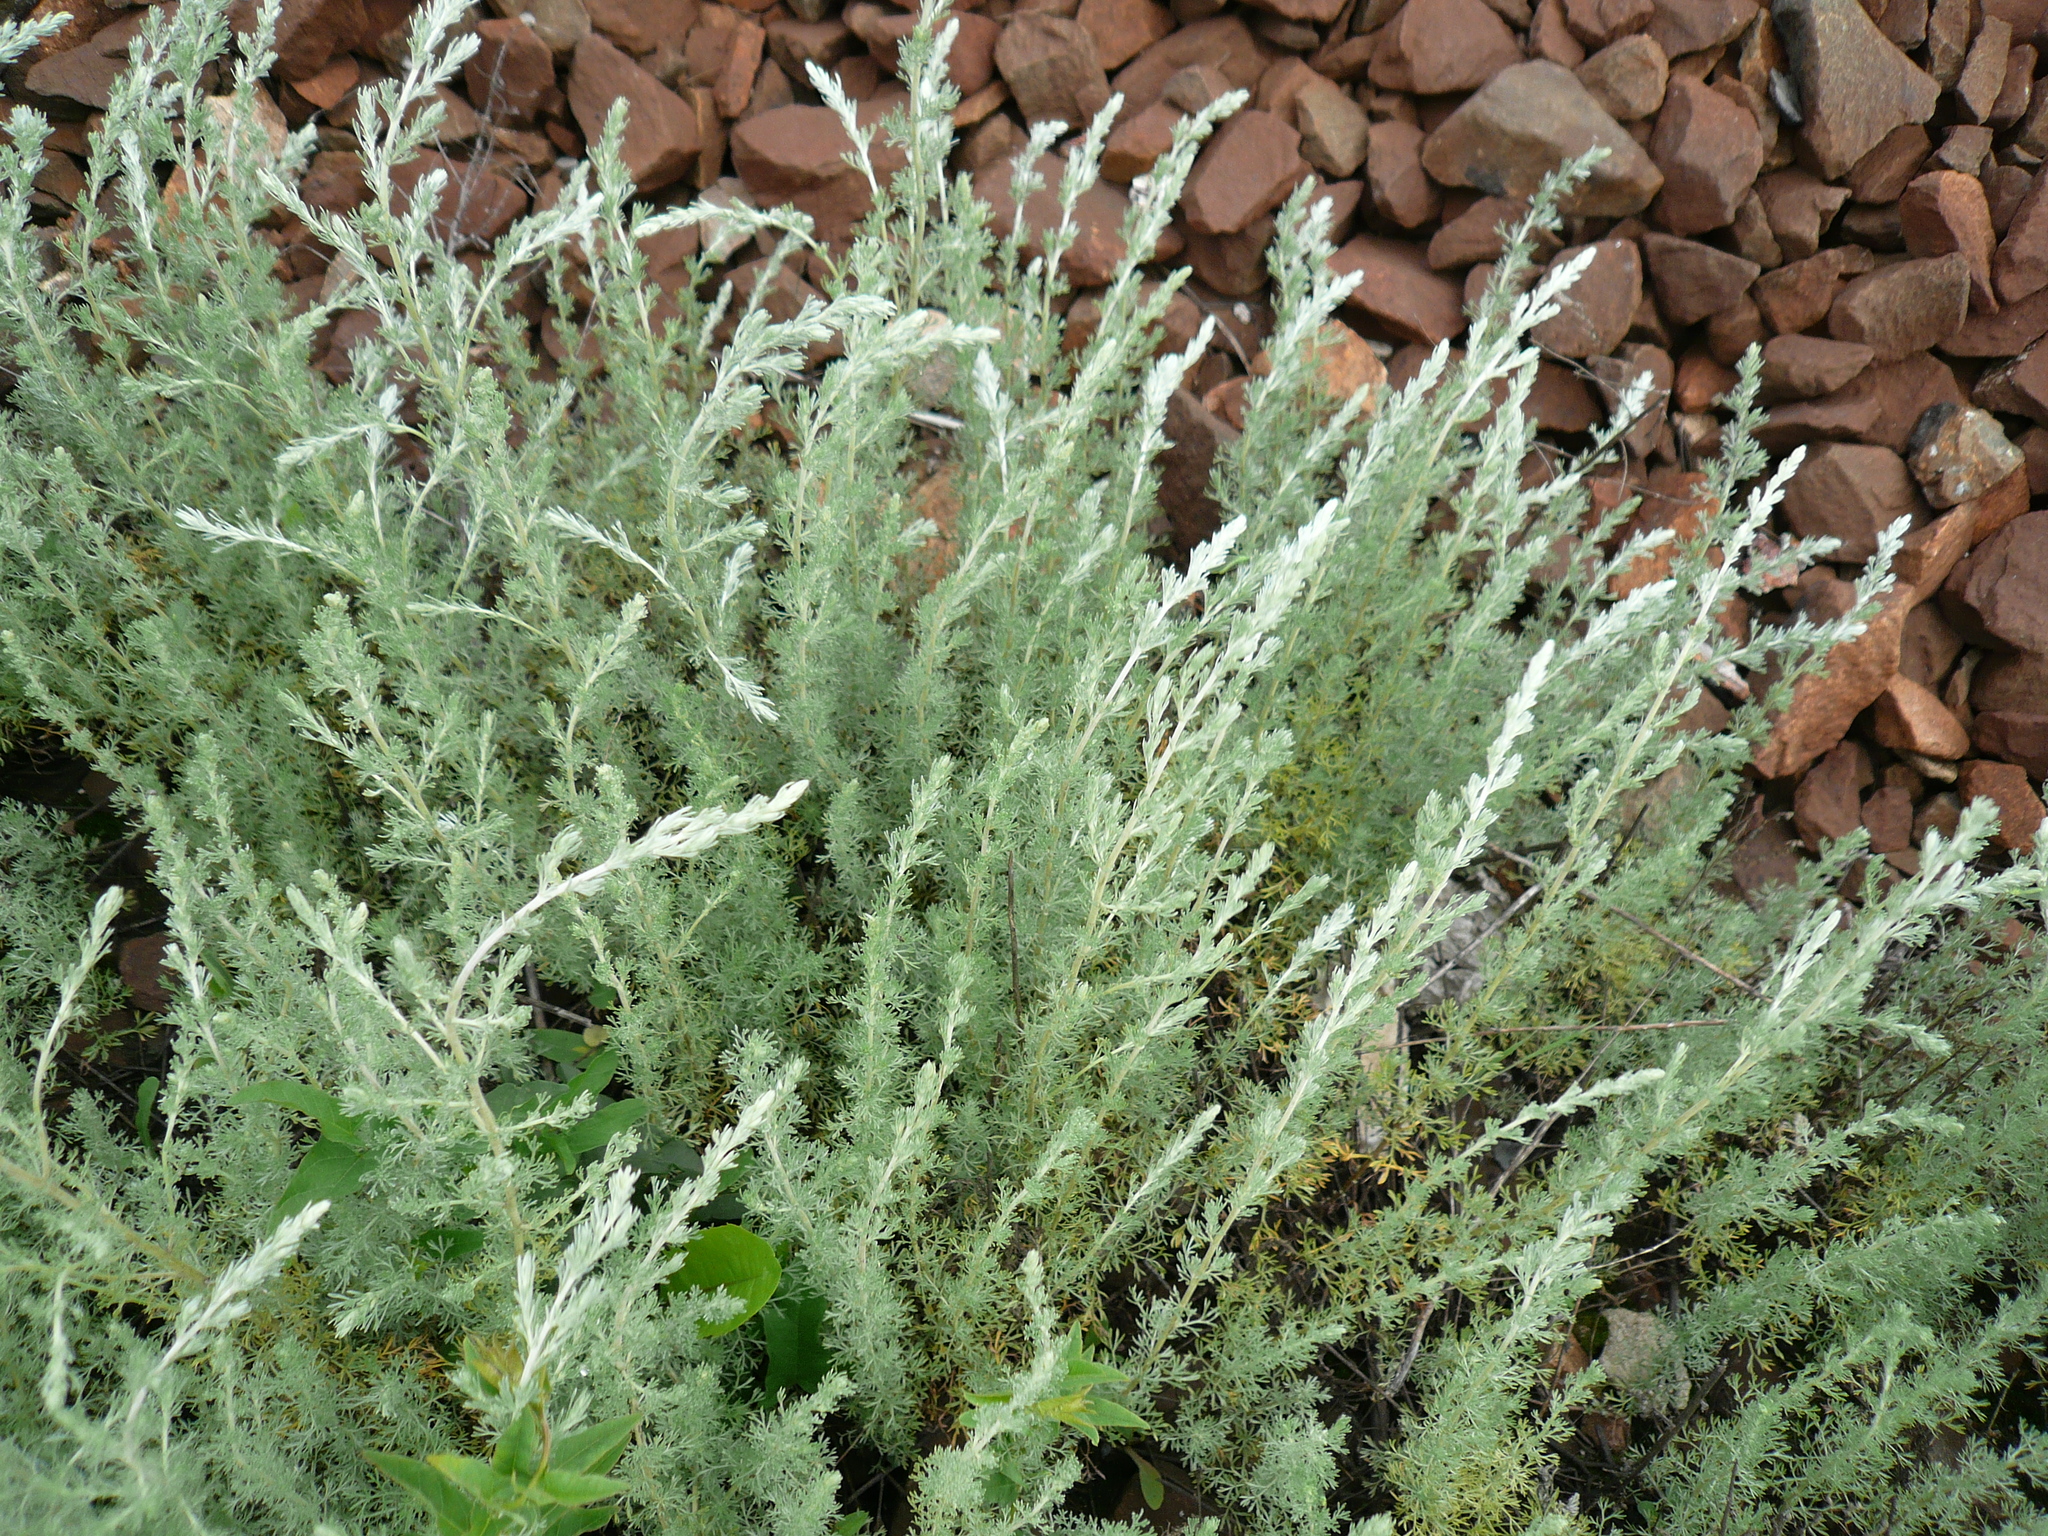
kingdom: Plantae
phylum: Tracheophyta
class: Magnoliopsida
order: Asterales
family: Asteraceae
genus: Artemisia
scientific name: Artemisia austriaca
